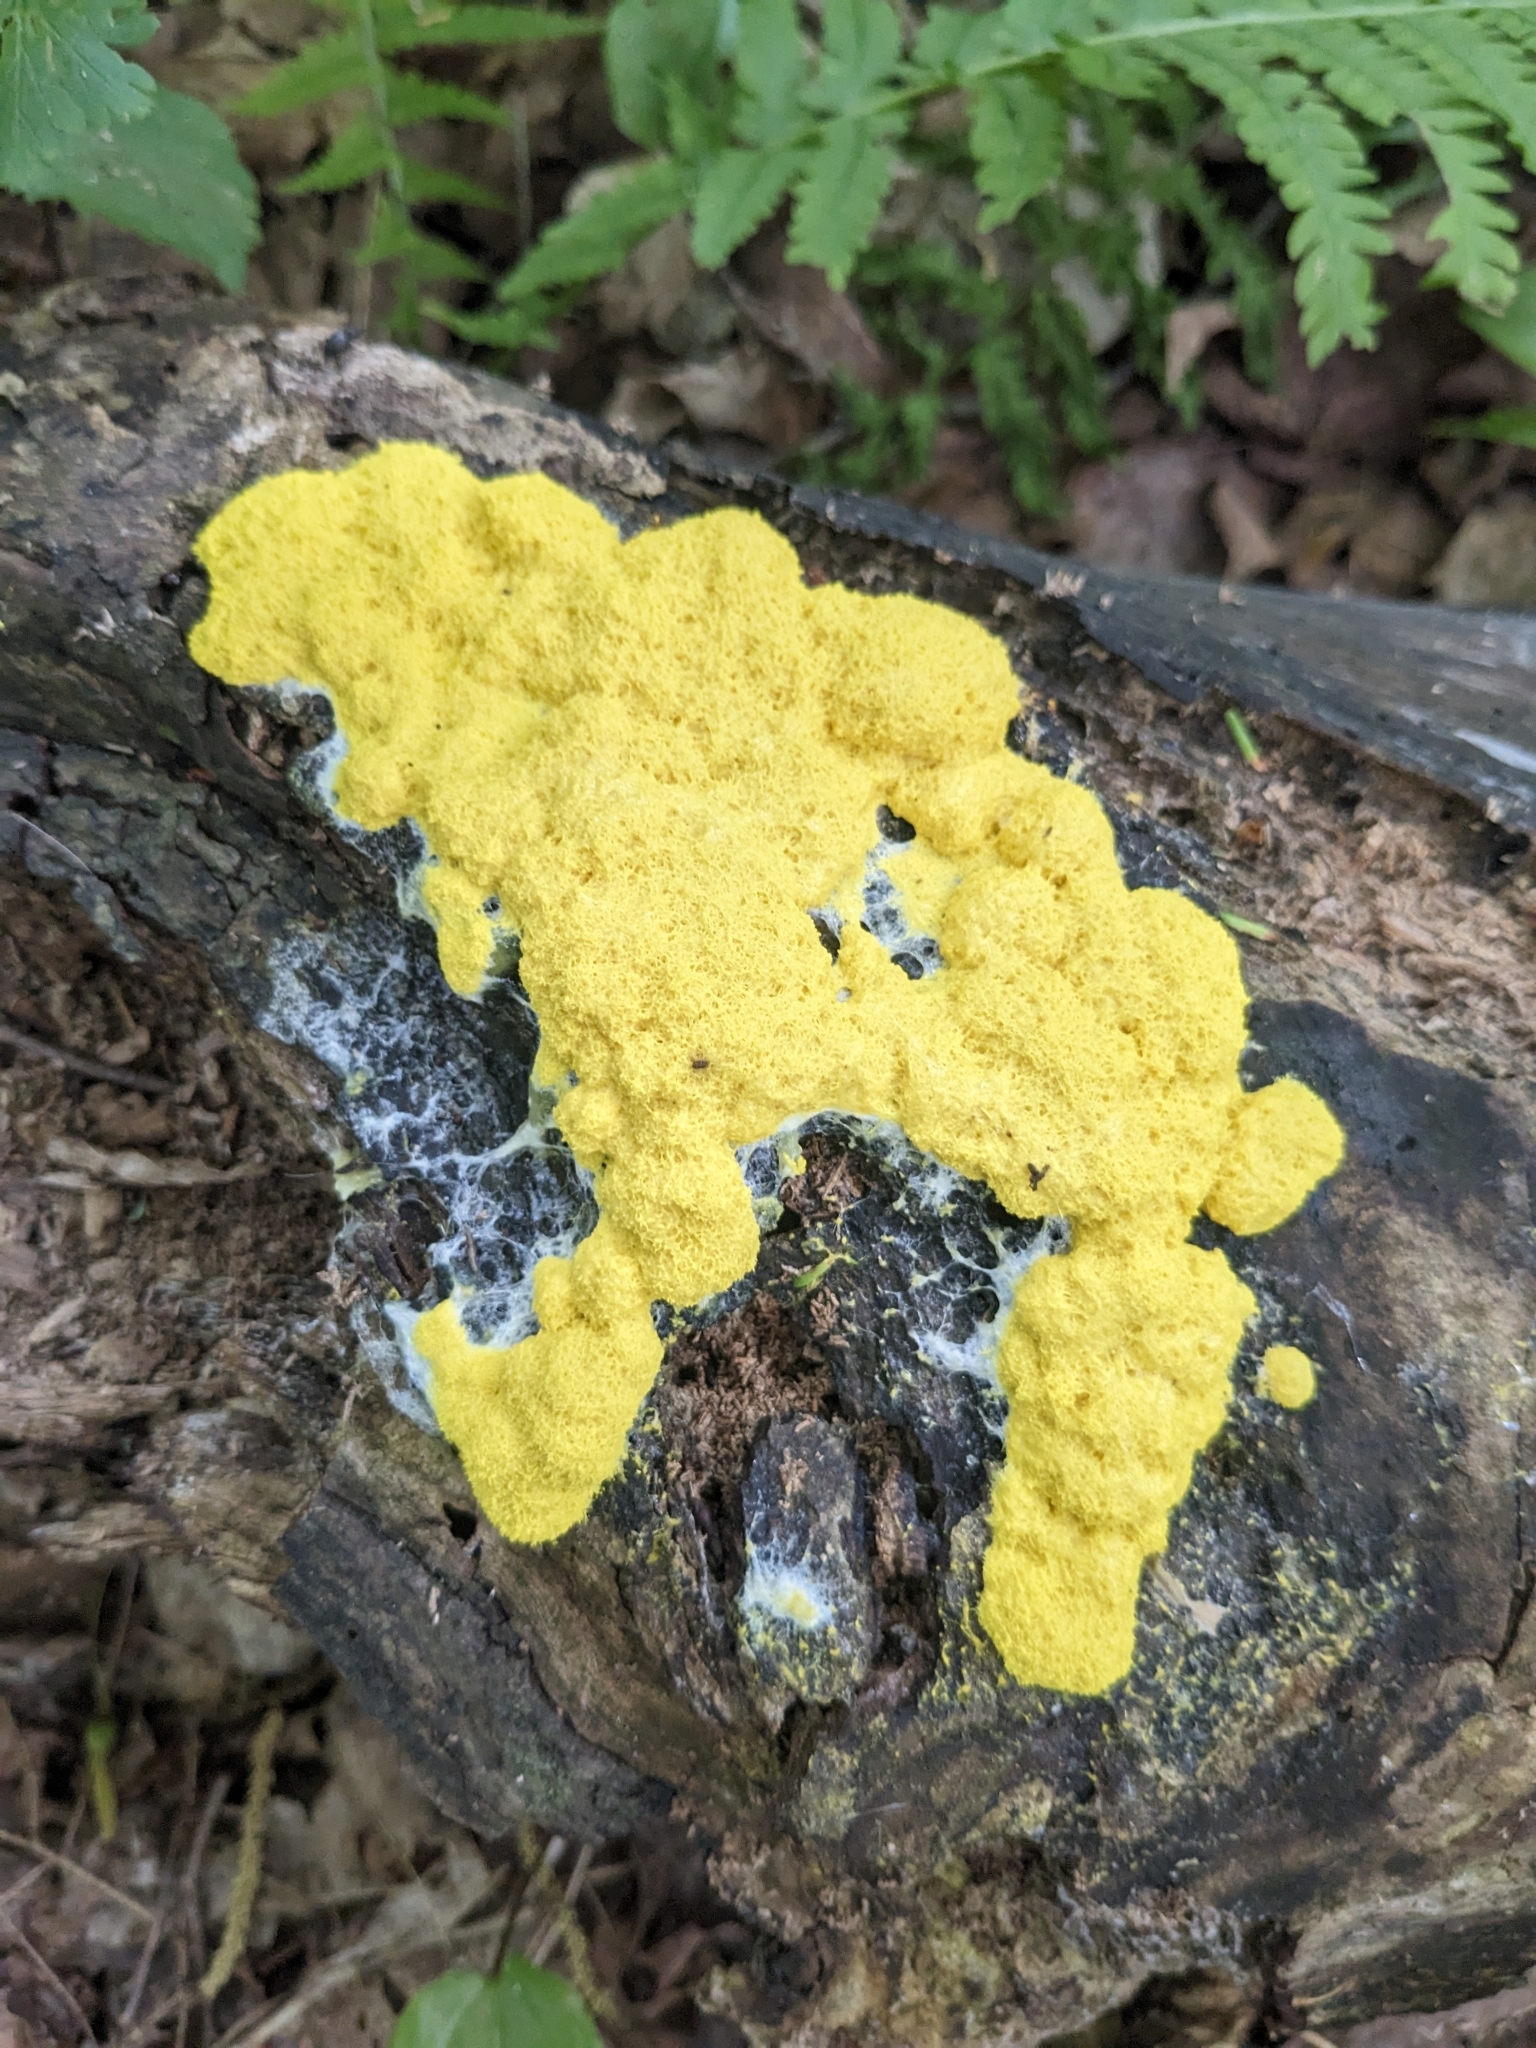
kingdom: Protozoa
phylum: Mycetozoa
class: Myxomycetes
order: Physarales
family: Physaraceae
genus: Fuligo
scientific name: Fuligo septica
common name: Dog vomit slime mold
